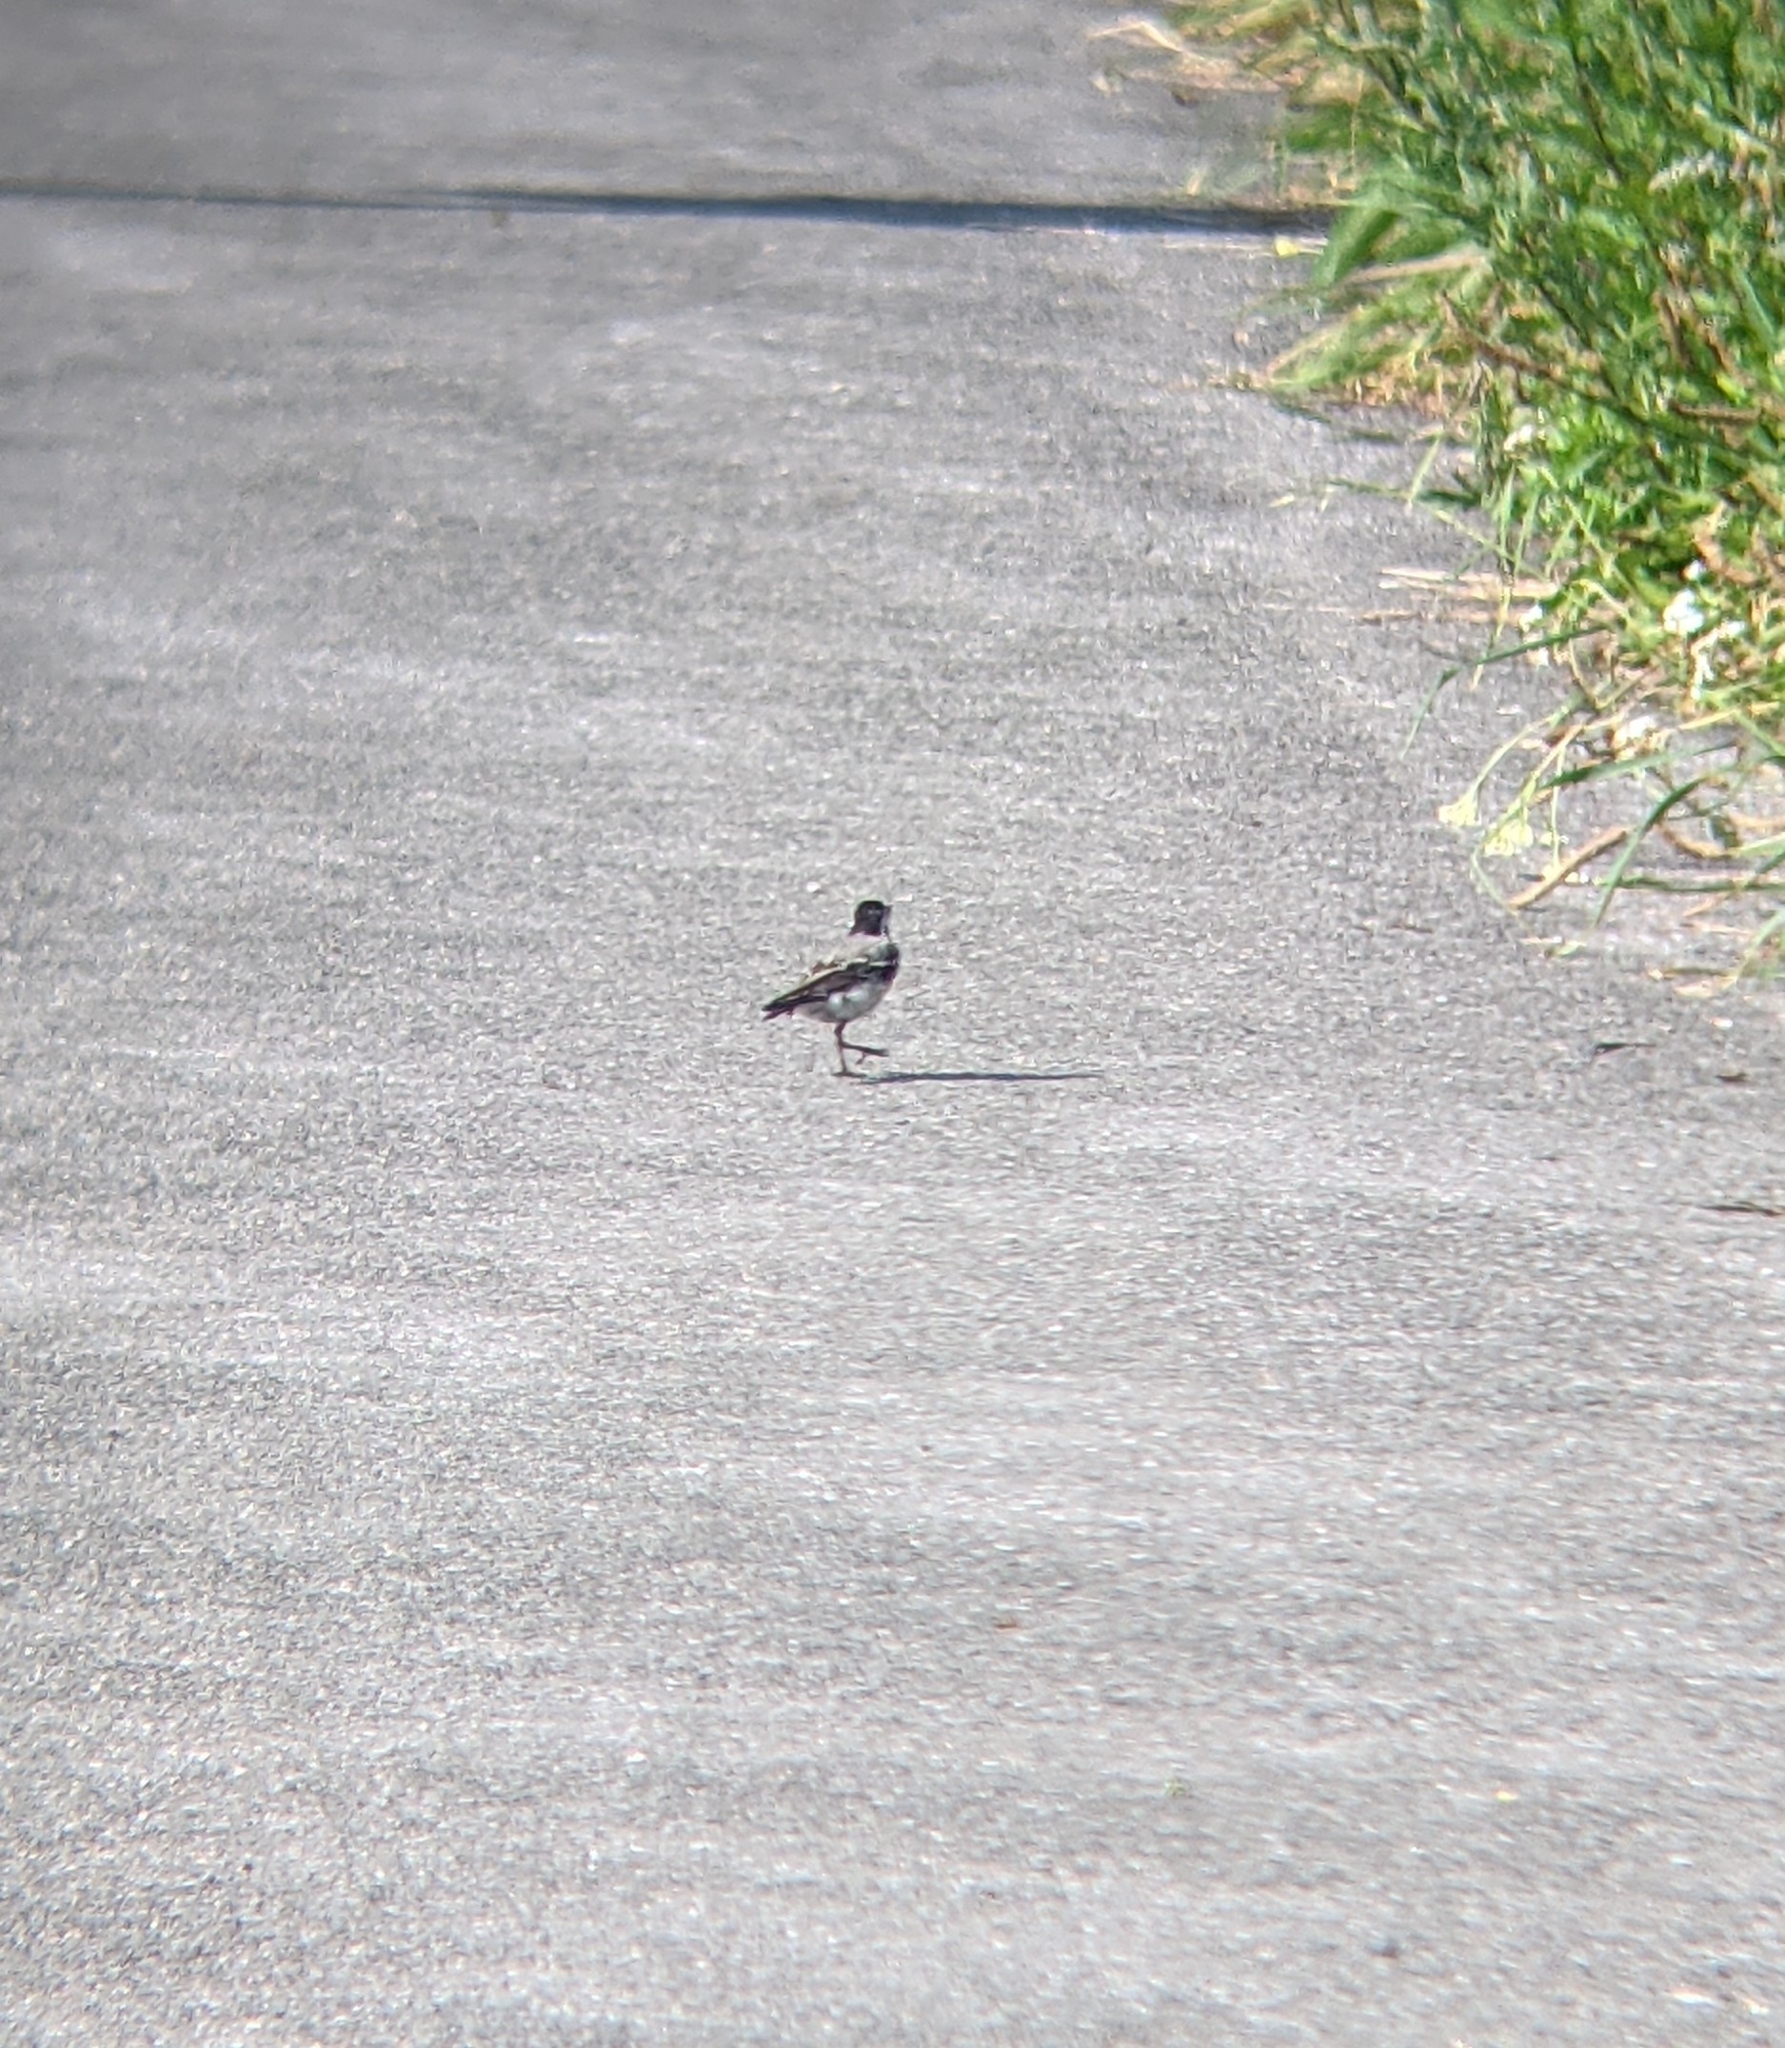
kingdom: Animalia
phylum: Chordata
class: Aves
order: Passeriformes
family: Motacillidae
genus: Motacilla
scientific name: Motacilla alba
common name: White wagtail
